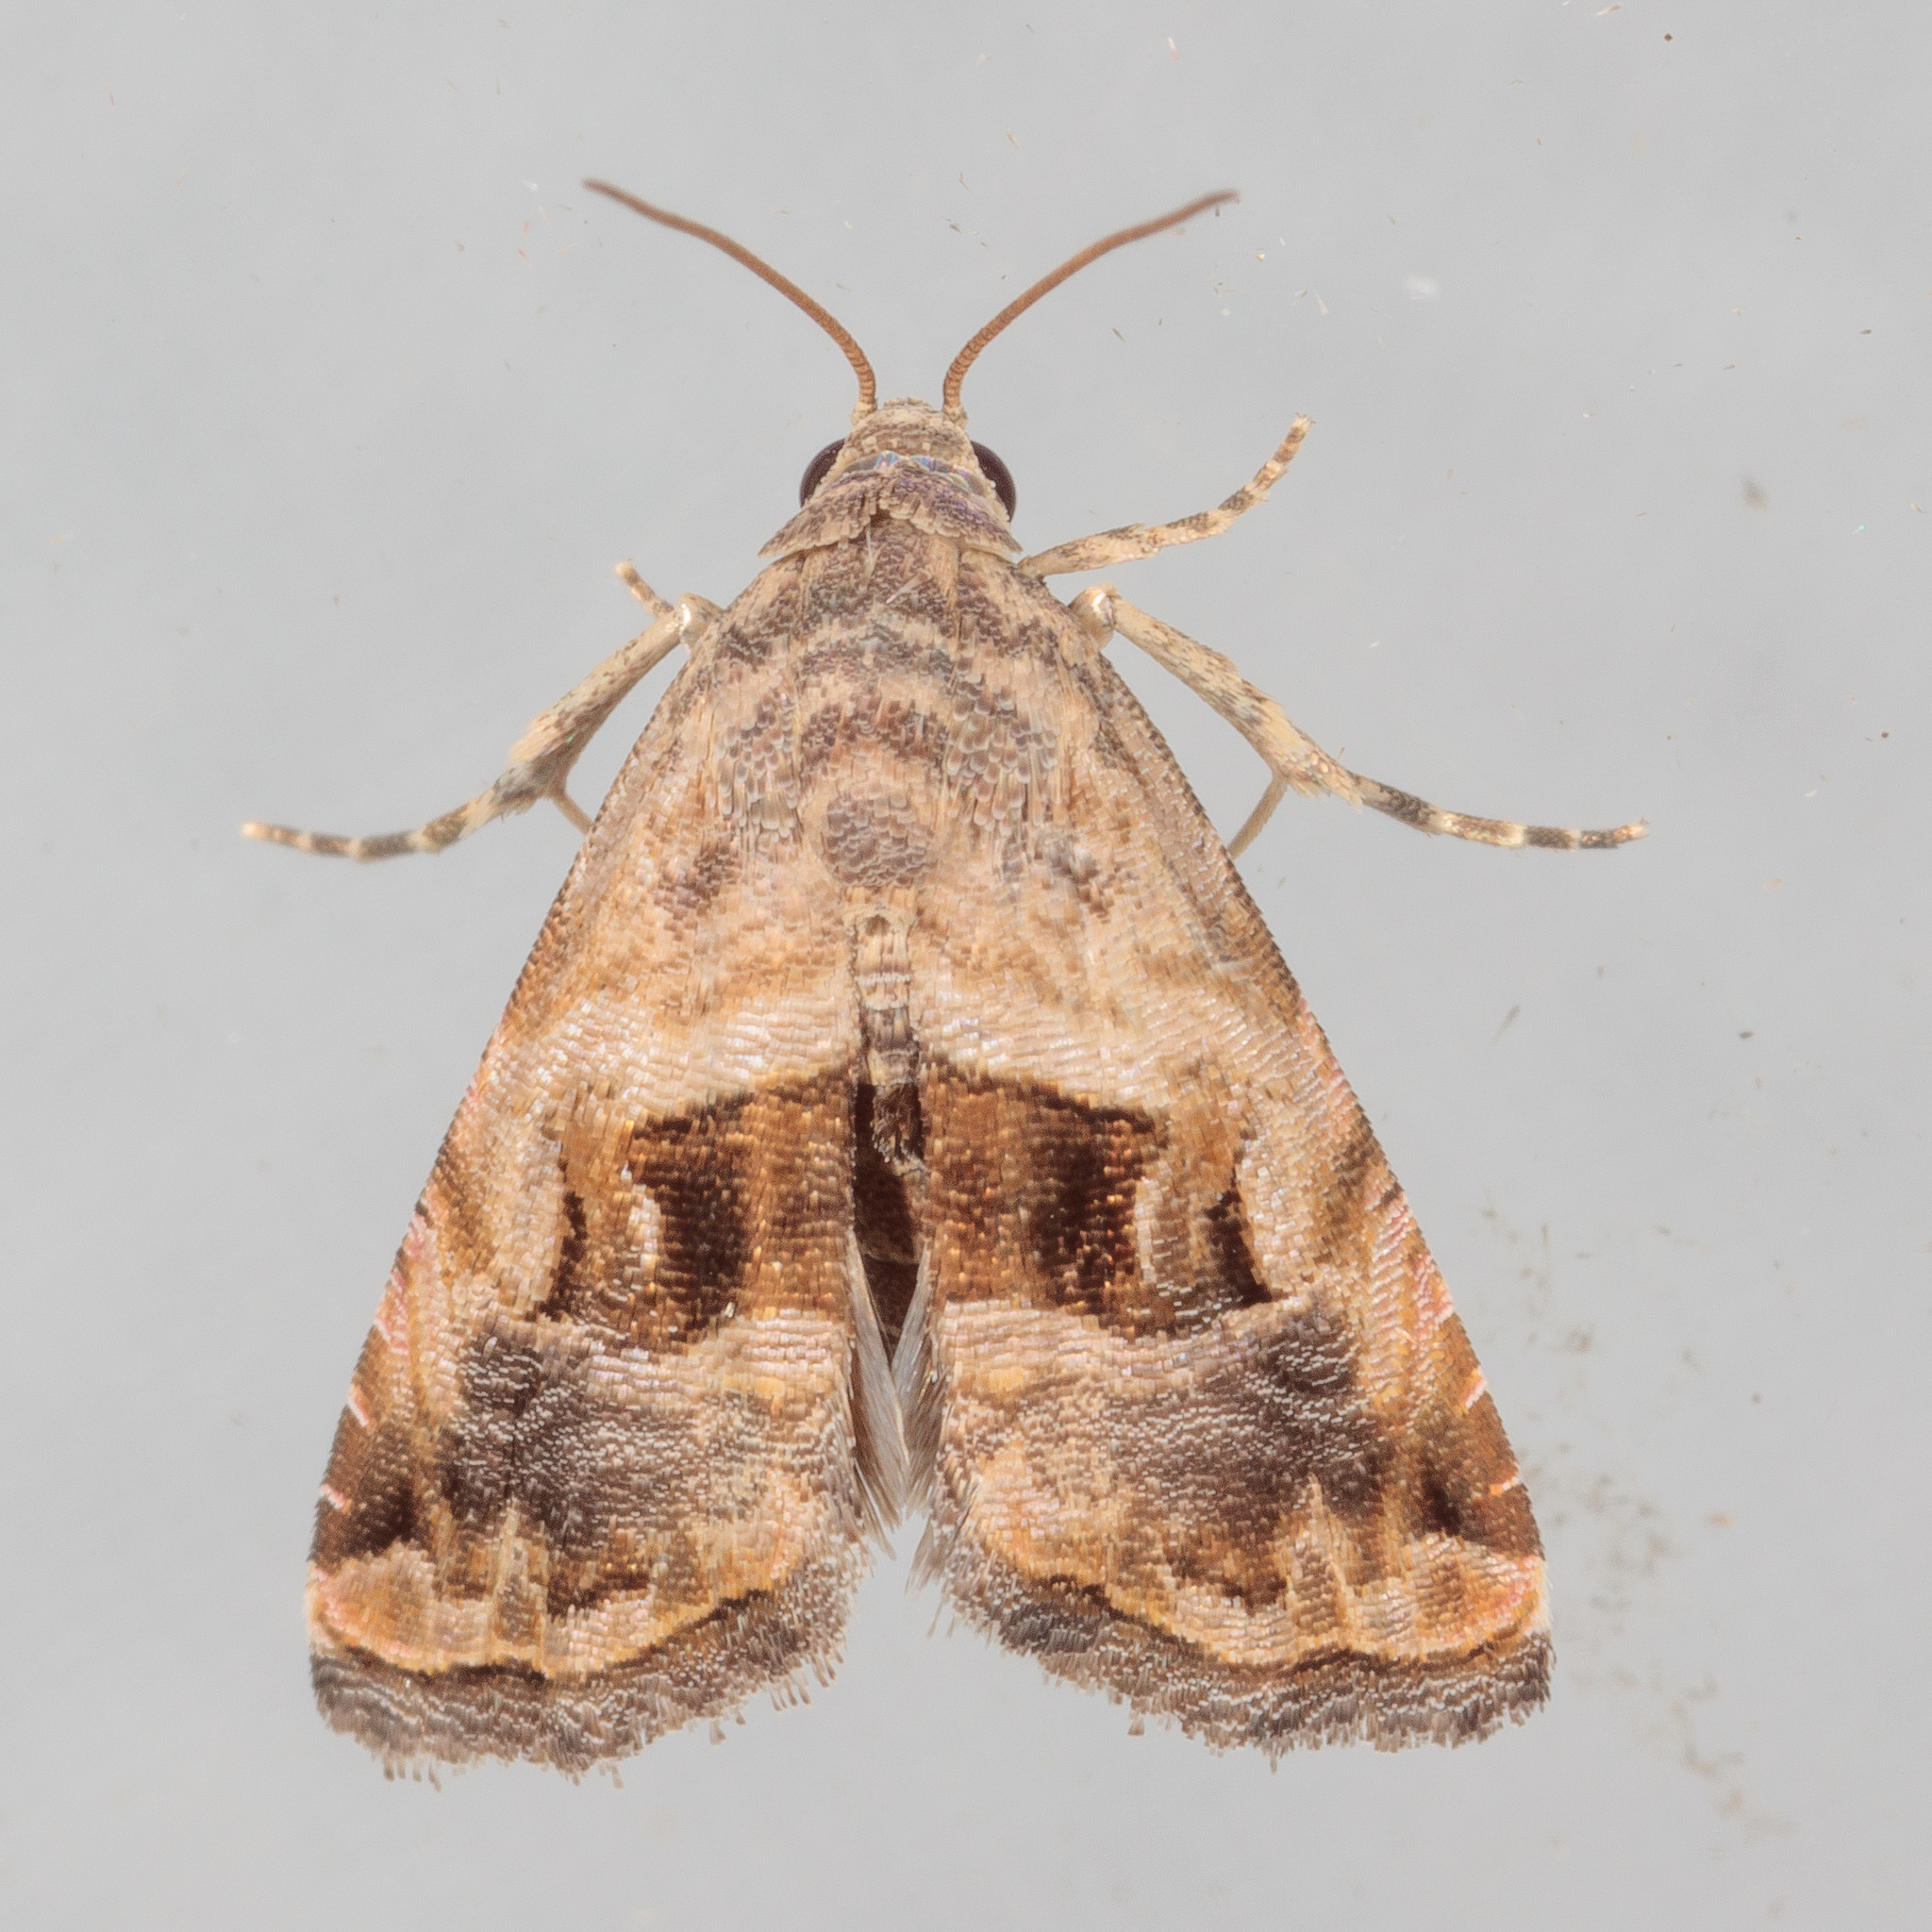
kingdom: Animalia
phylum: Arthropoda
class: Insecta
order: Lepidoptera
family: Noctuidae
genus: Tripudia
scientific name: Tripudia quadrifera
